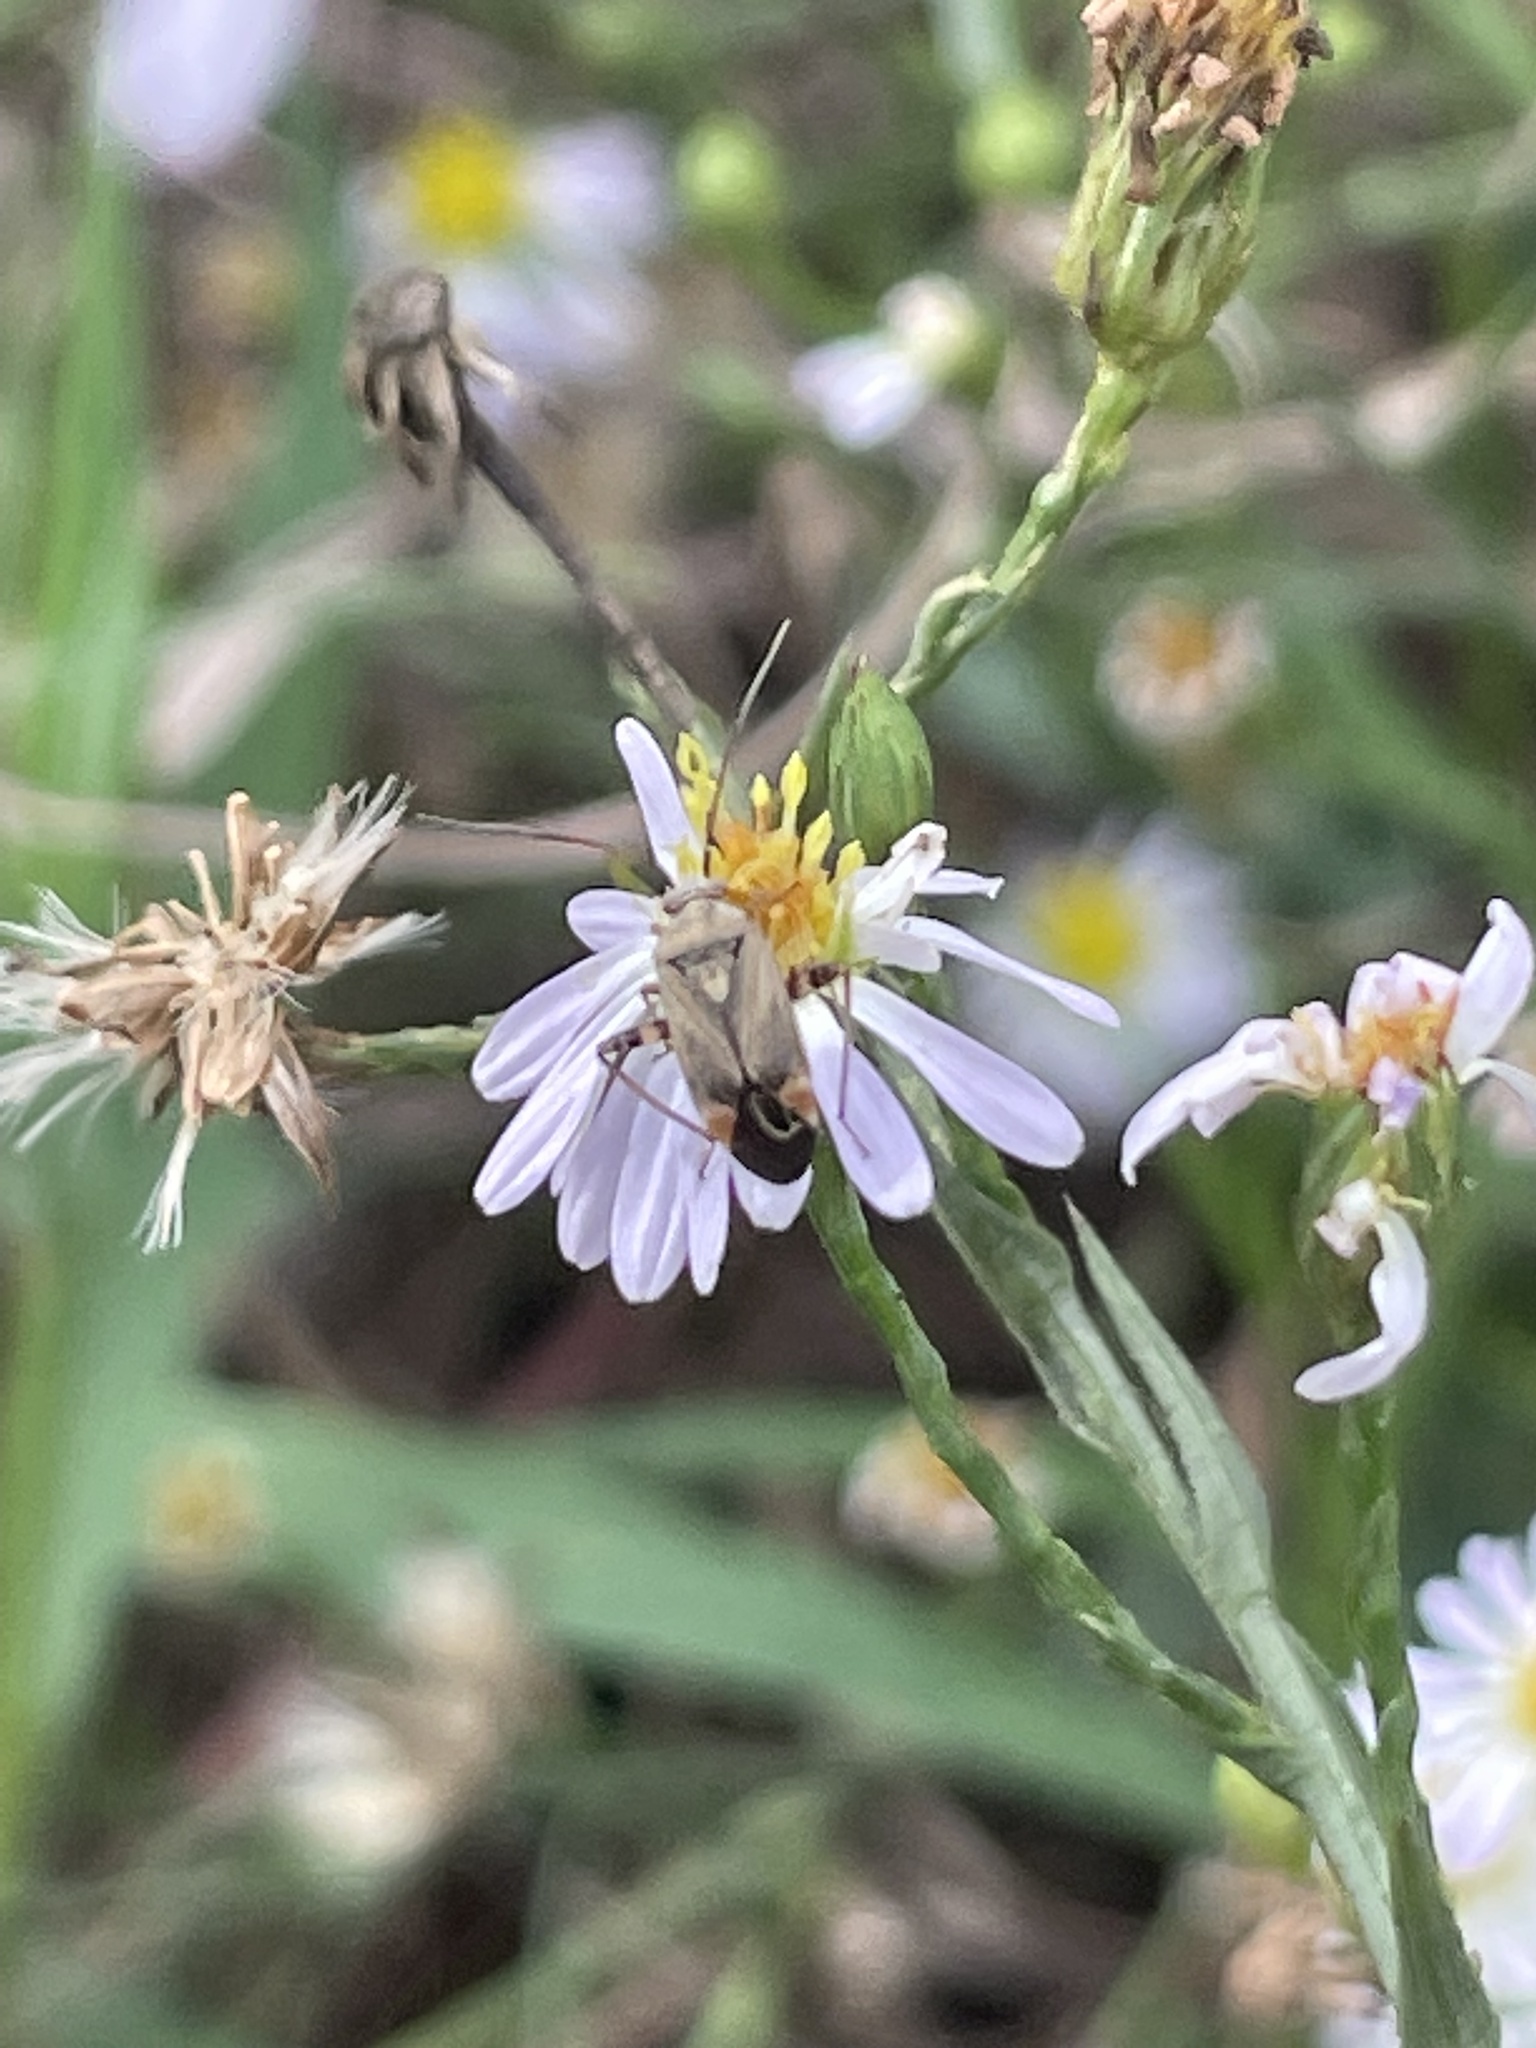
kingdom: Animalia
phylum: Arthropoda
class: Insecta
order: Hemiptera
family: Miridae
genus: Polymerus
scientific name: Polymerus basalis
